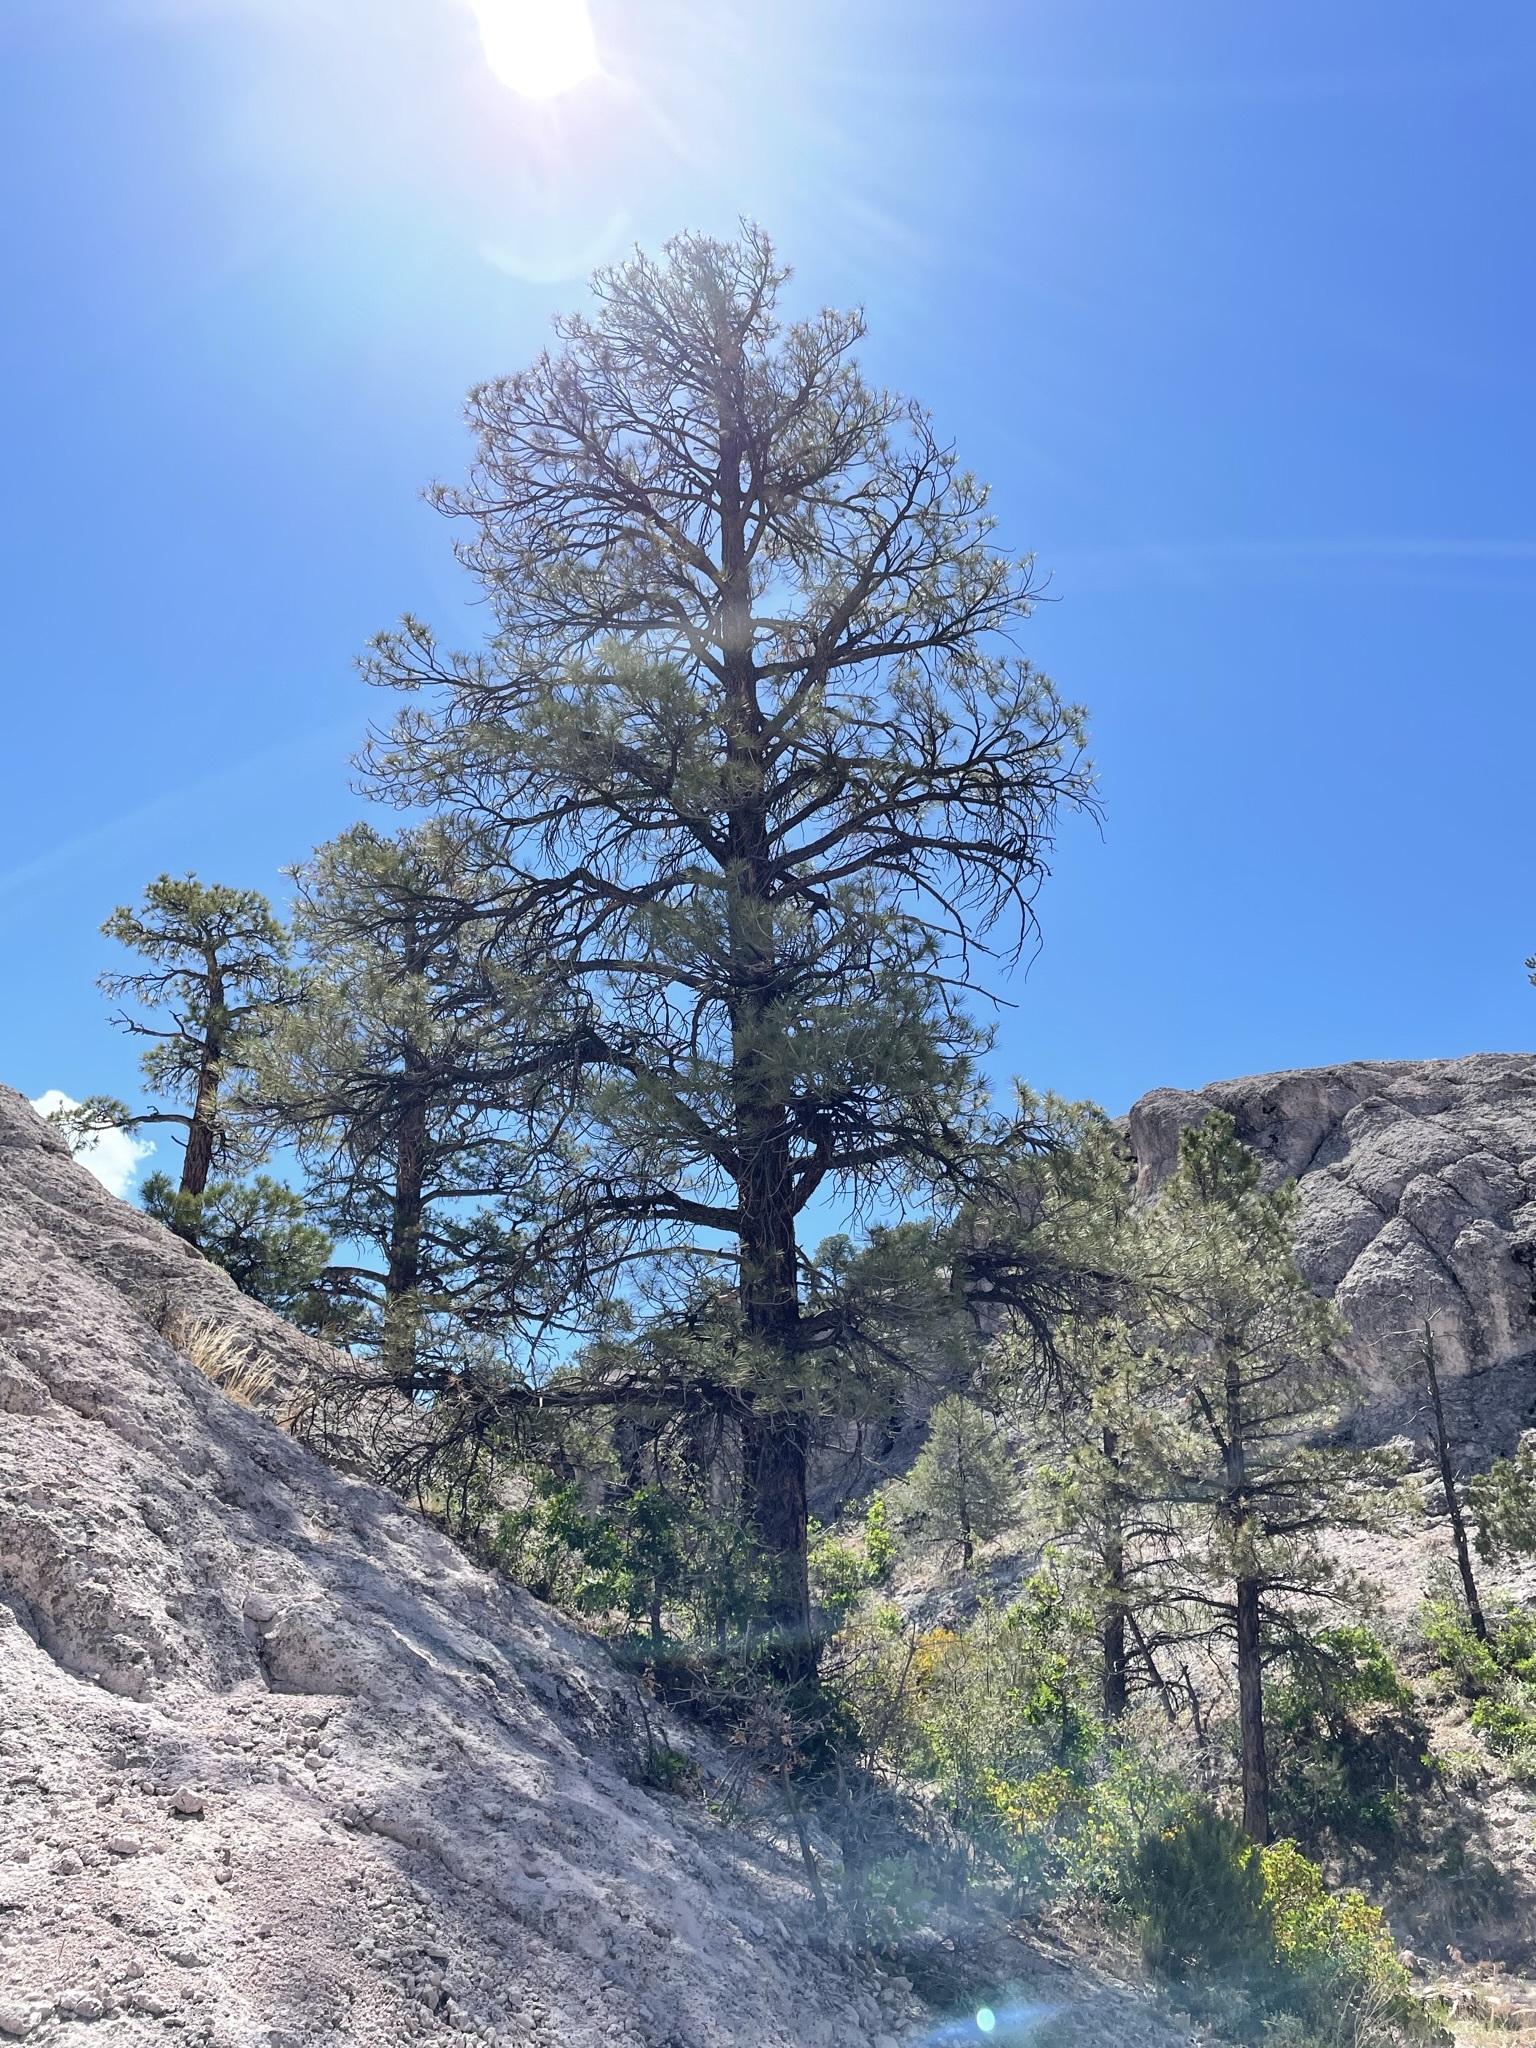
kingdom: Plantae
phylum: Tracheophyta
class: Pinopsida
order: Pinales
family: Pinaceae
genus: Pinus
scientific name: Pinus ponderosa
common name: Western yellow-pine
